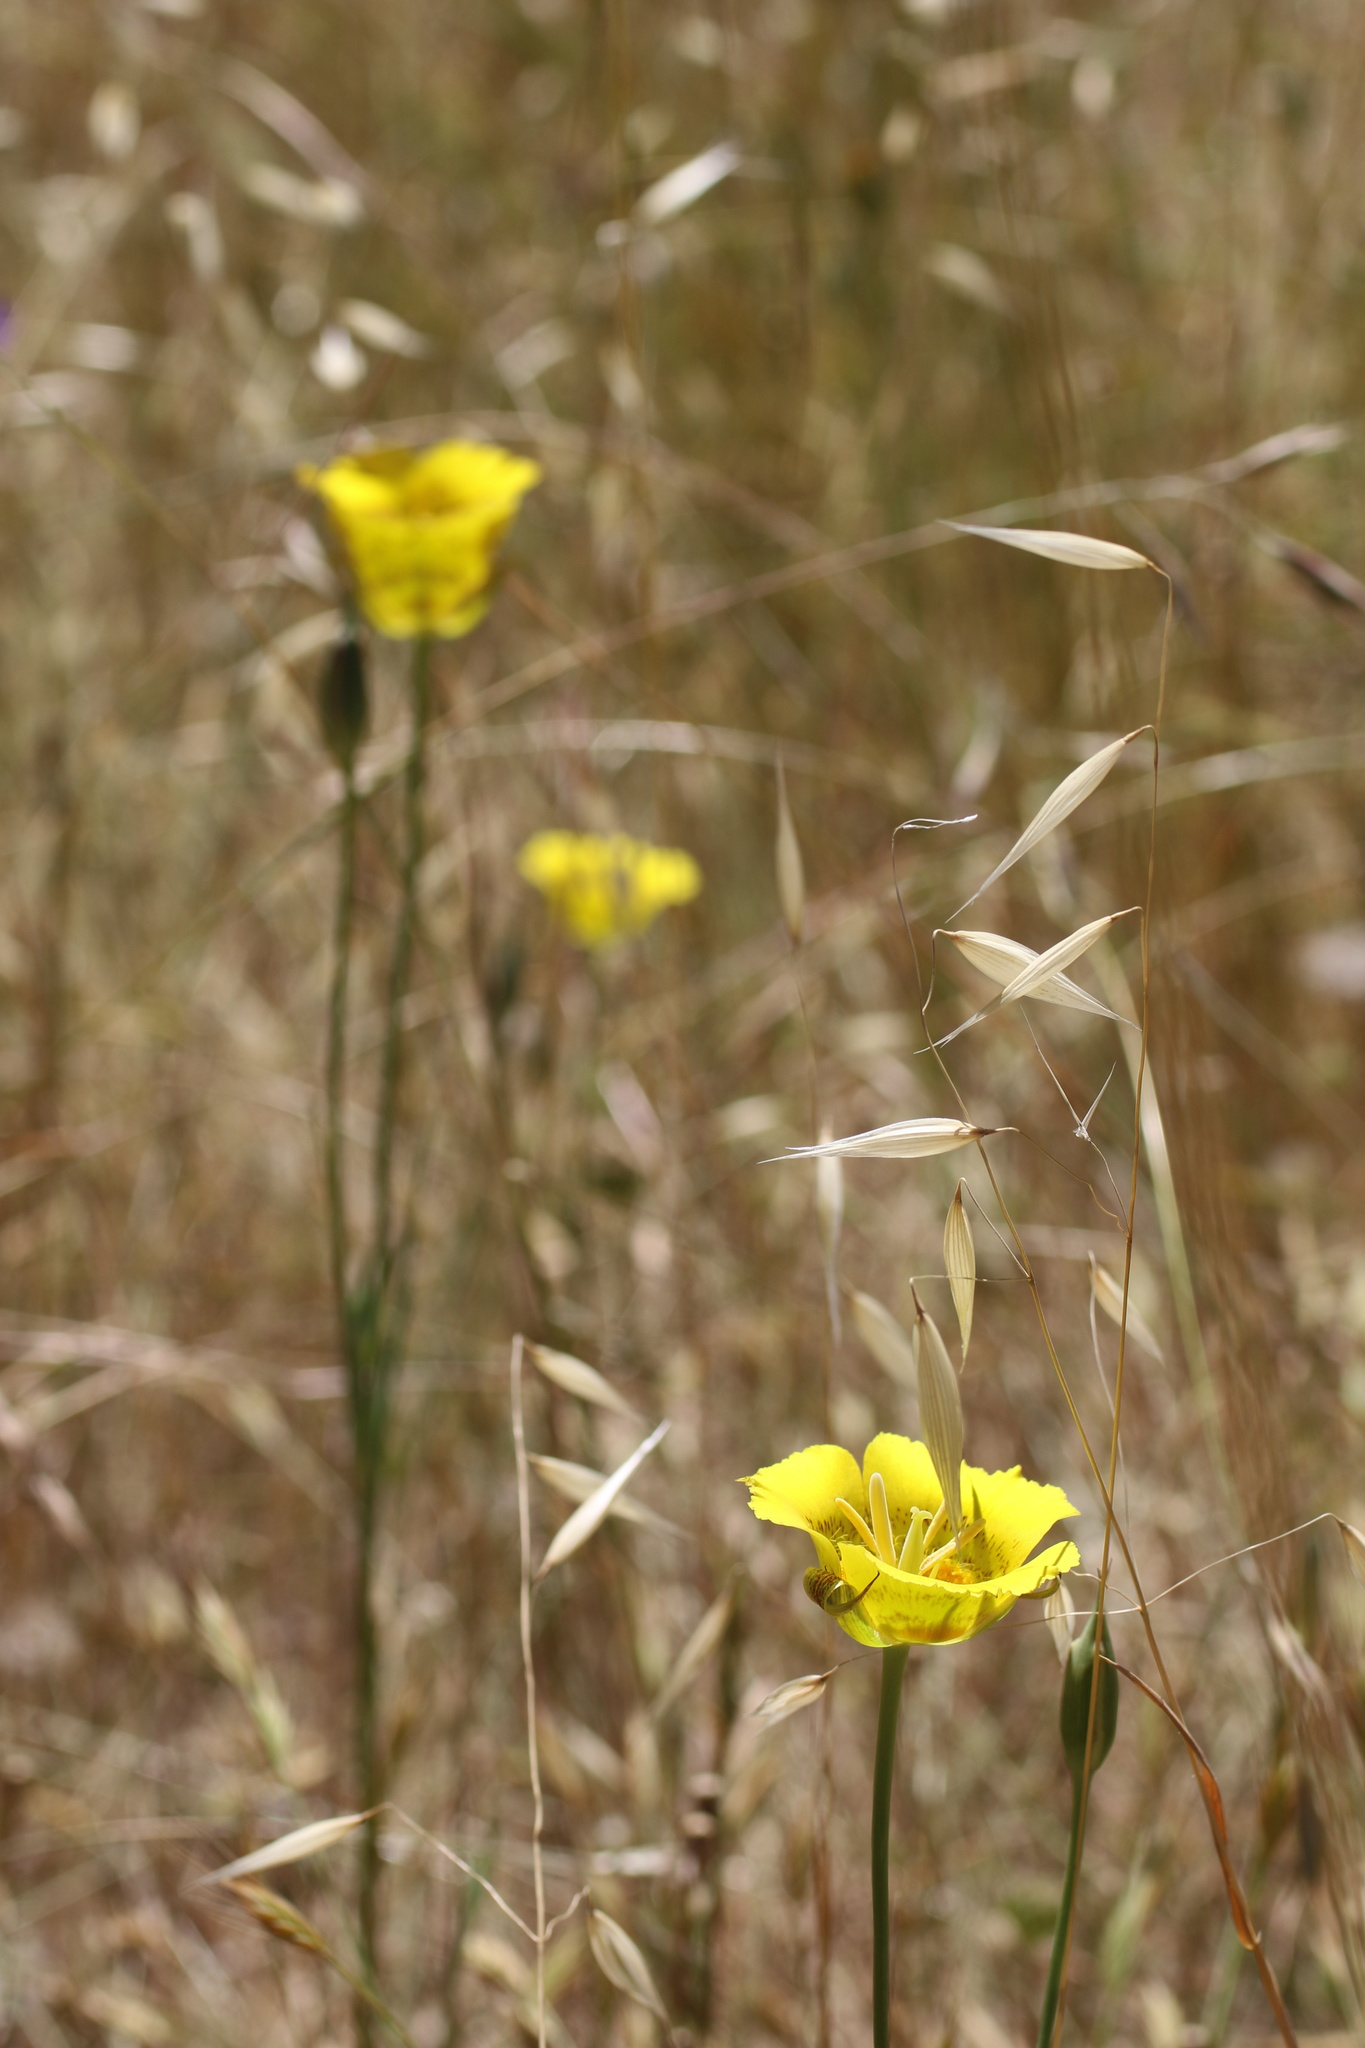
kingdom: Plantae
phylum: Tracheophyta
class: Liliopsida
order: Liliales
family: Liliaceae
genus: Calochortus
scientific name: Calochortus luteus
